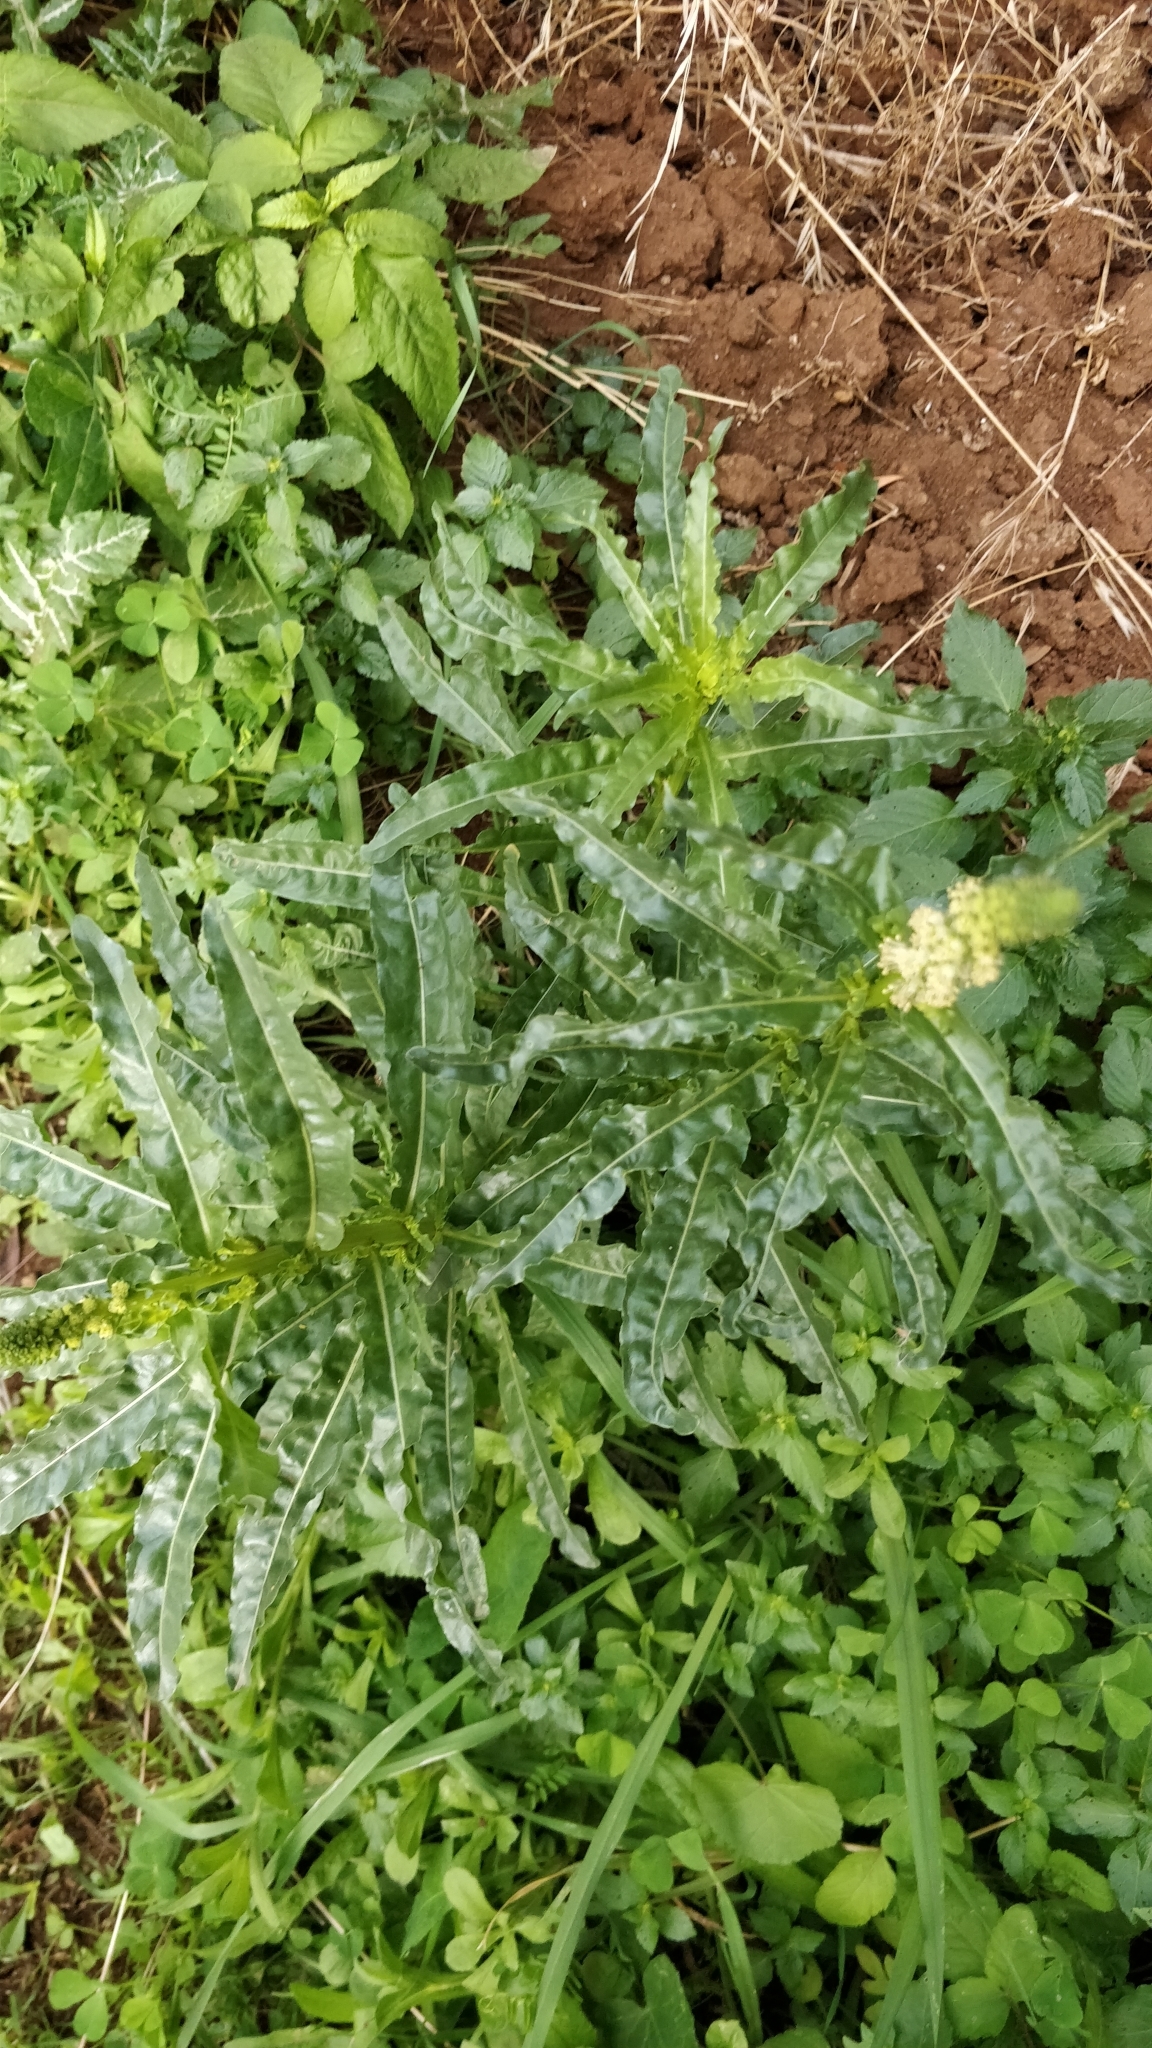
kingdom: Plantae
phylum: Tracheophyta
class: Magnoliopsida
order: Brassicales
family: Resedaceae
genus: Reseda
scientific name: Reseda luteola
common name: Weld
